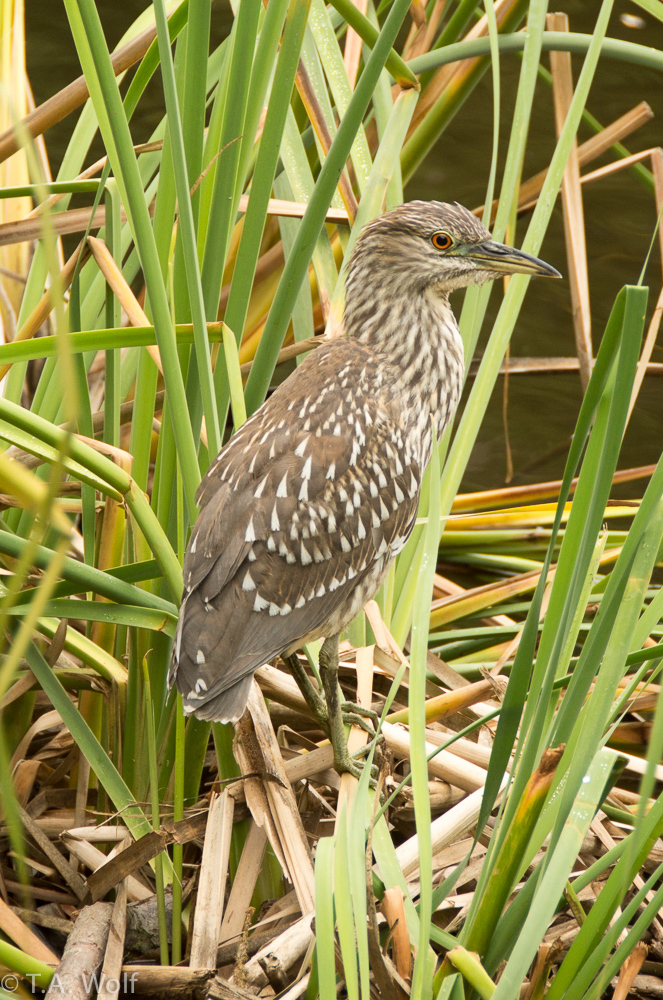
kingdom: Animalia
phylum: Chordata
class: Aves
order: Pelecaniformes
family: Ardeidae
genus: Nycticorax
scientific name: Nycticorax nycticorax
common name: Black-crowned night heron
